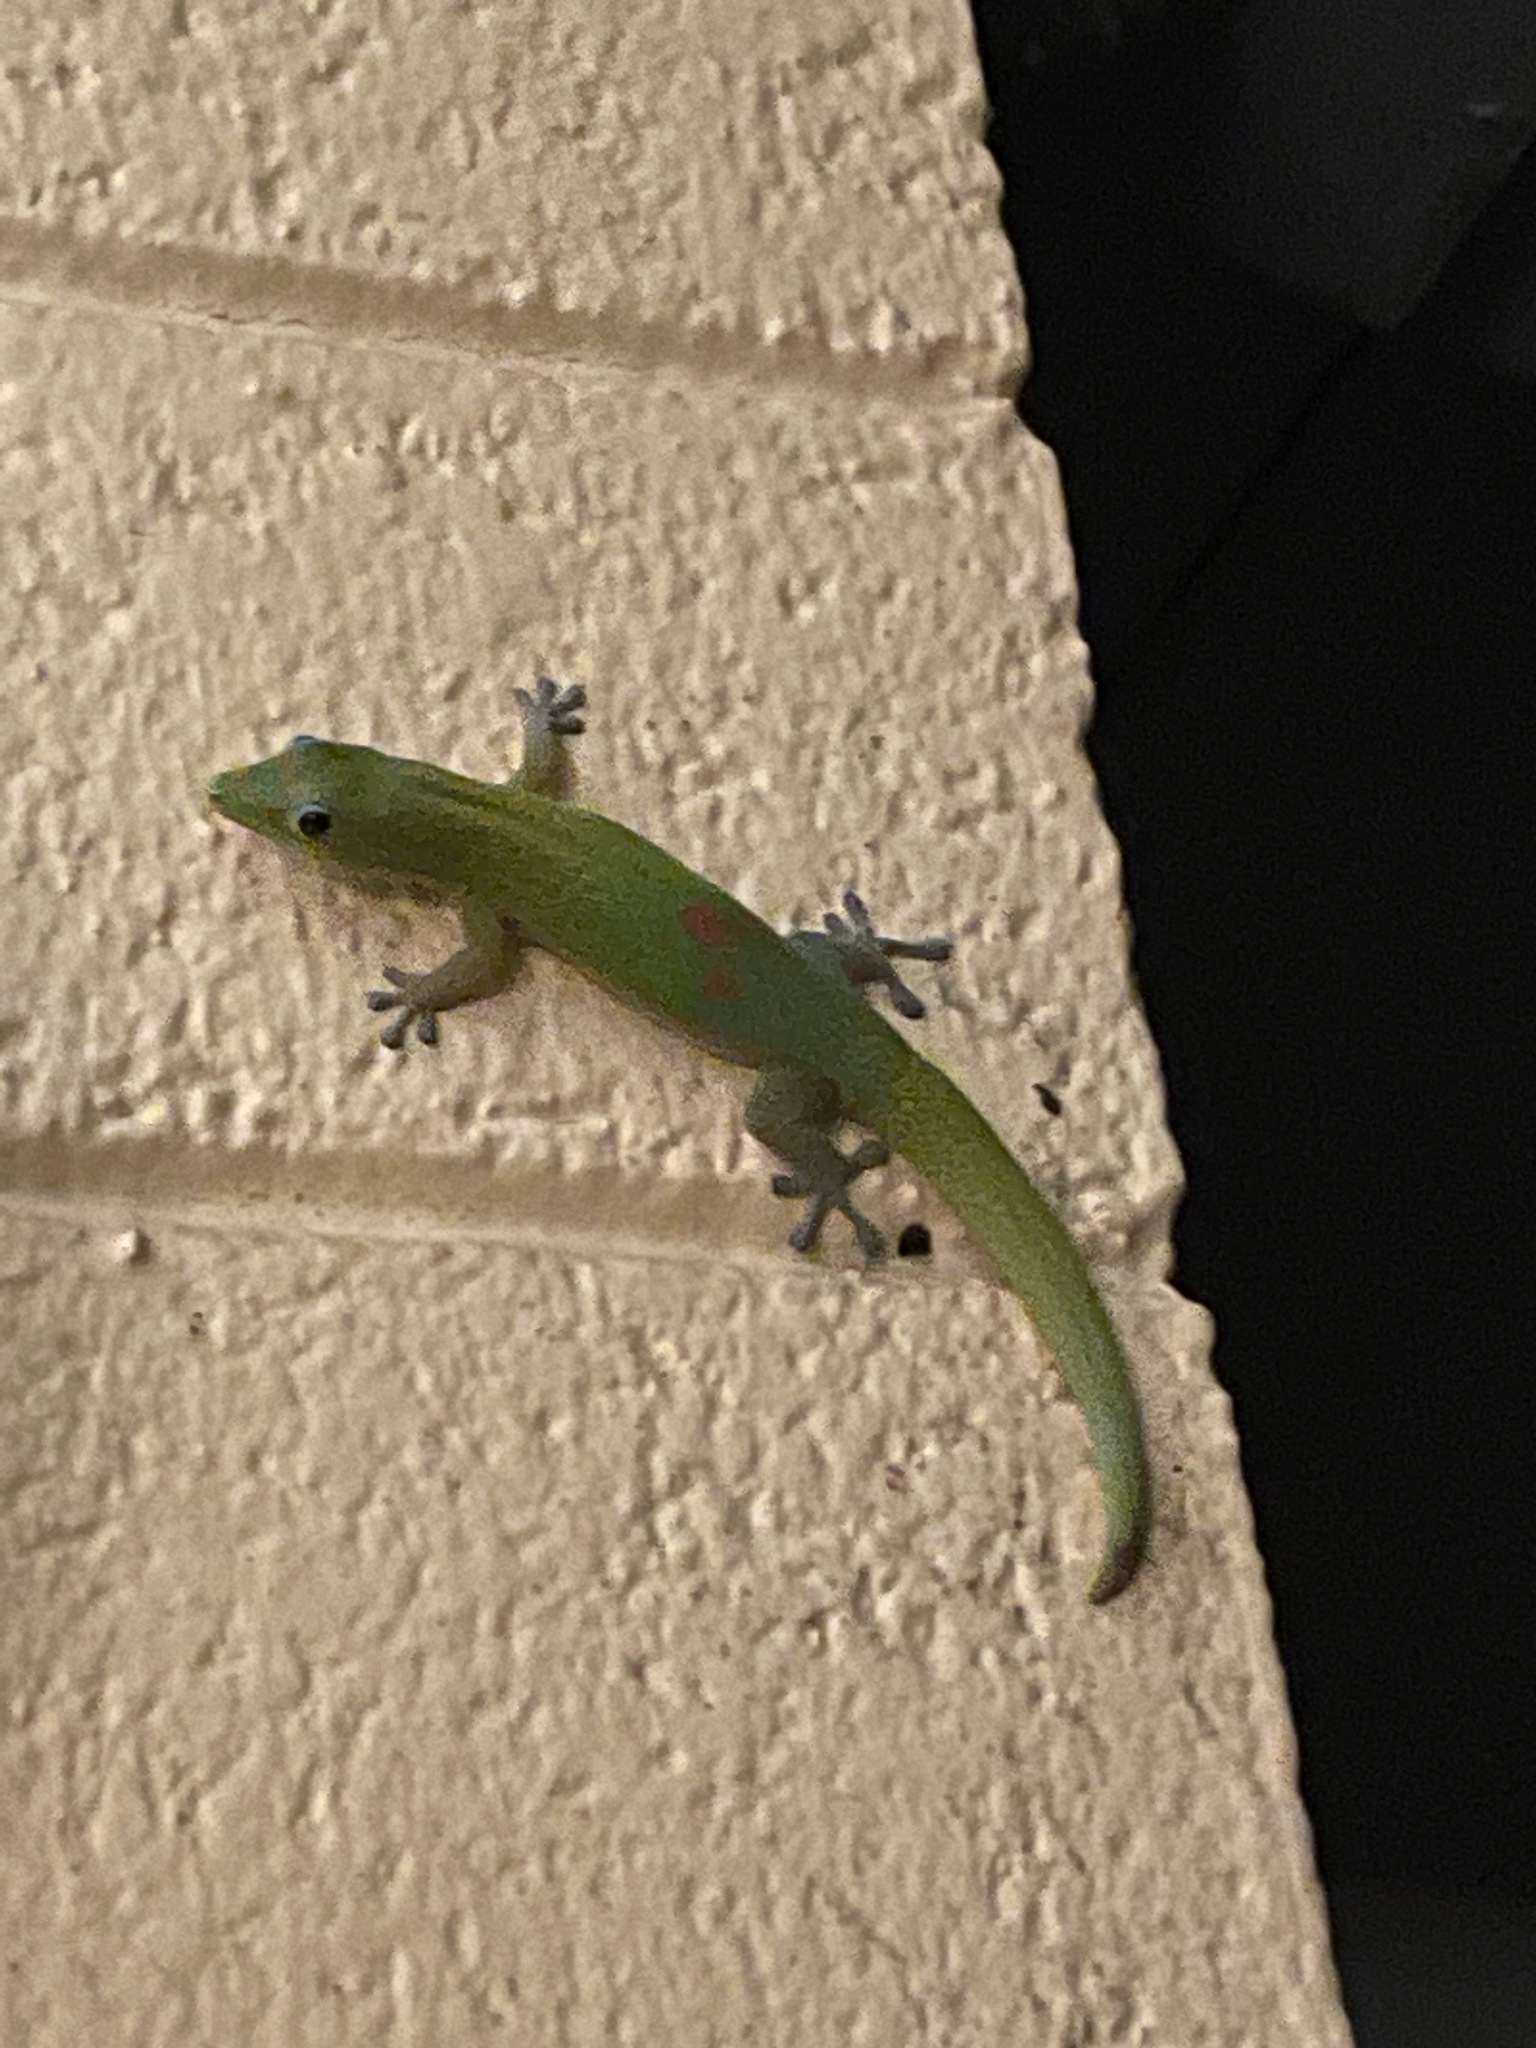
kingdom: Animalia
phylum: Chordata
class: Squamata
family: Gekkonidae
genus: Phelsuma
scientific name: Phelsuma laticauda
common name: Gold dust day gecko
